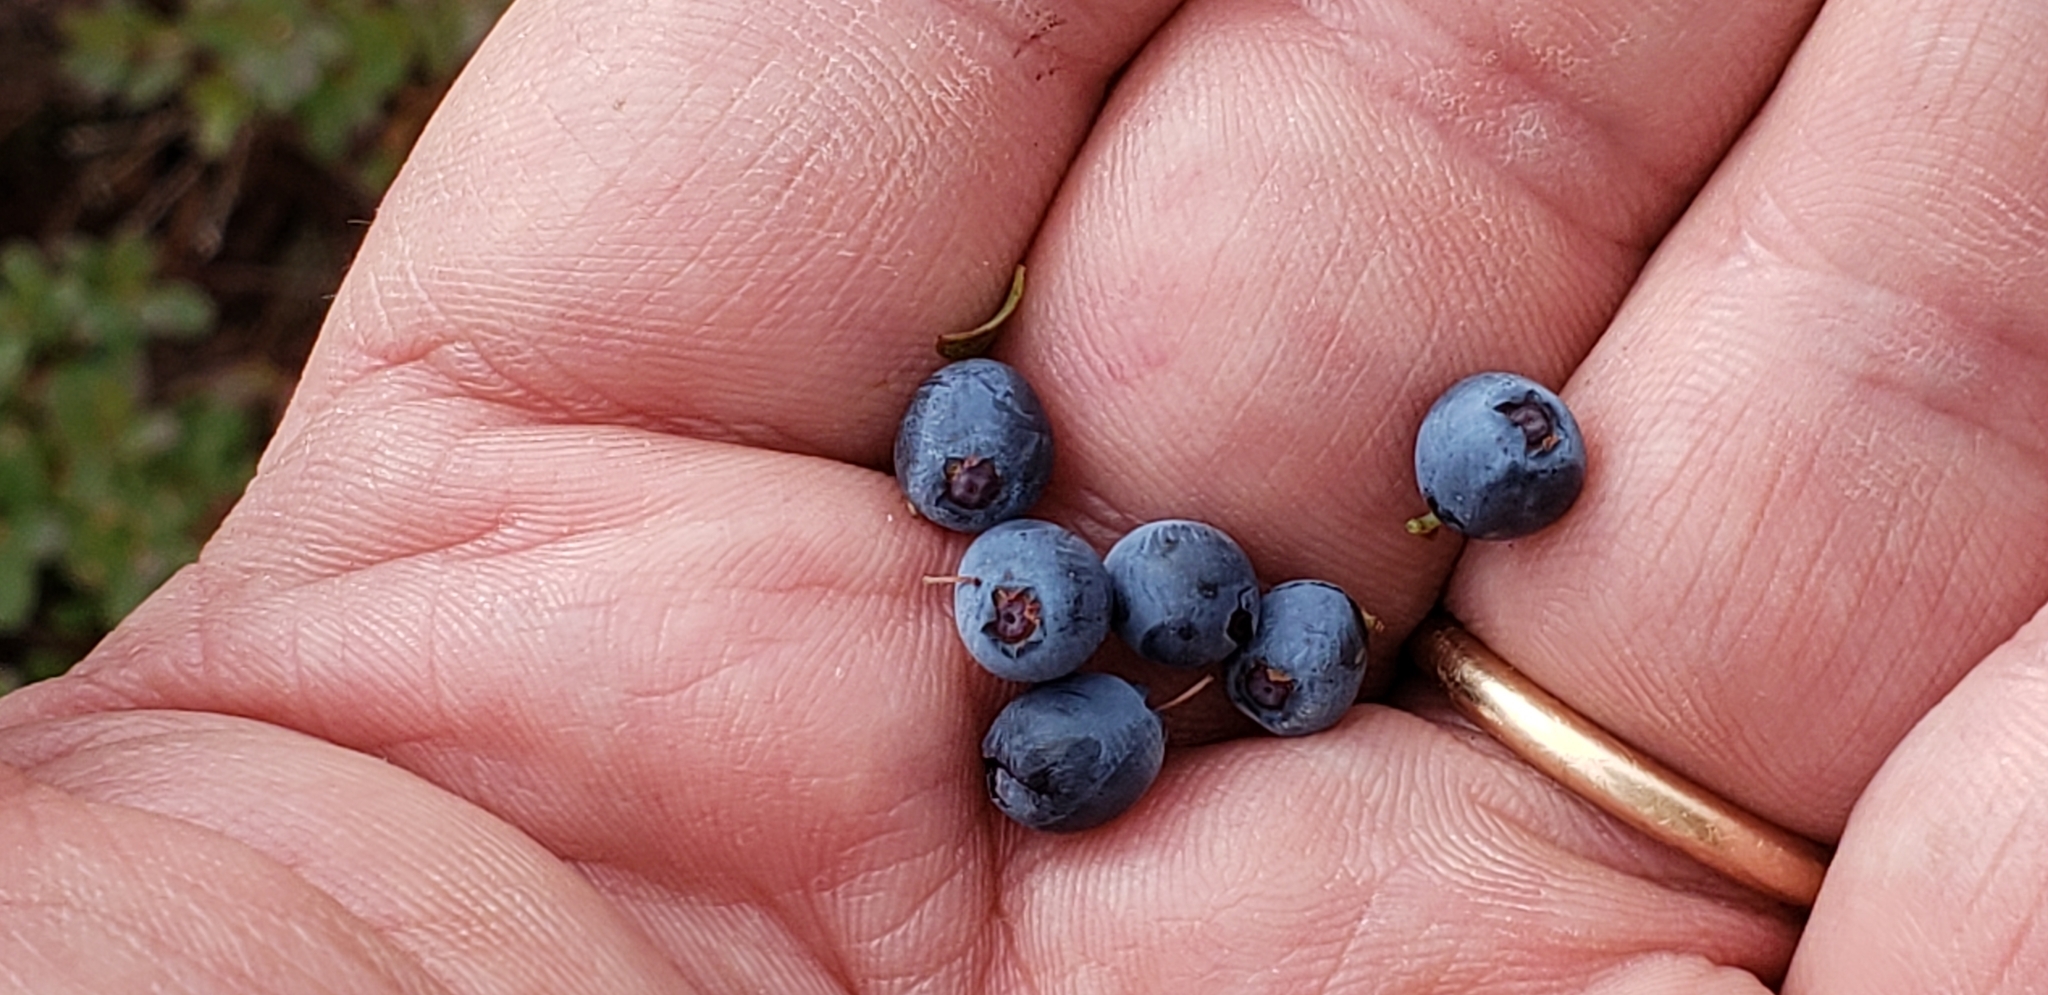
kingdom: Plantae
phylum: Tracheophyta
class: Magnoliopsida
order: Ericales
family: Ericaceae
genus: Vaccinium
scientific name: Vaccinium uliginosum
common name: Bog bilberry
